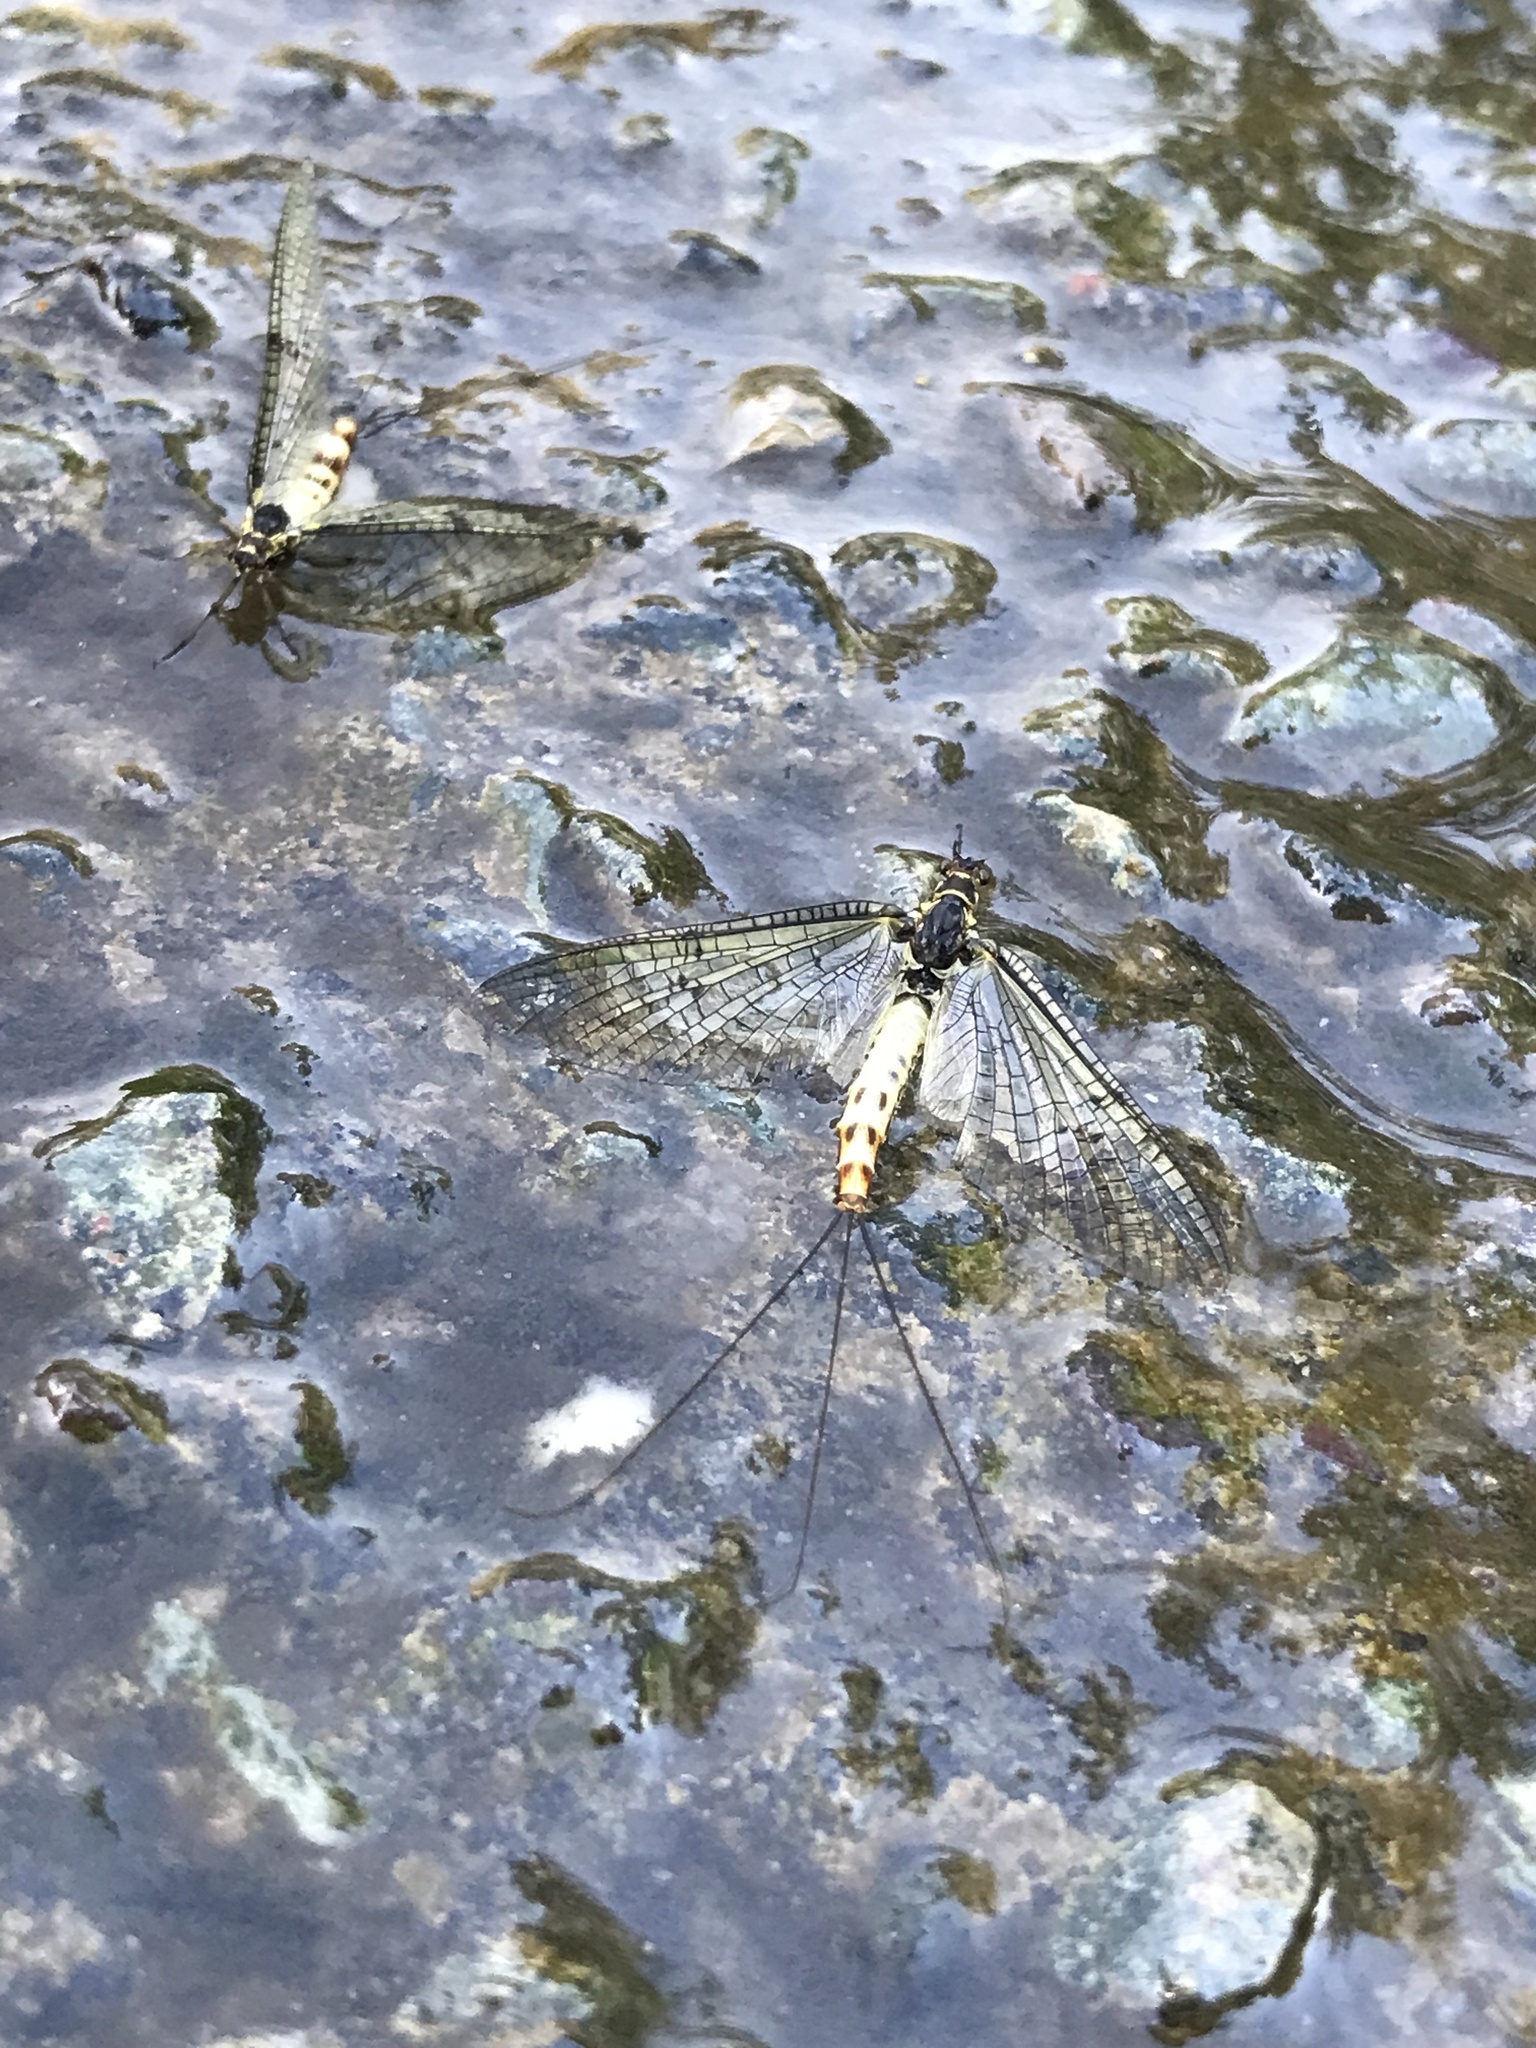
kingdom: Animalia
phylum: Arthropoda
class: Insecta
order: Ephemeroptera
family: Ephemeridae
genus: Ephemera
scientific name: Ephemera danica
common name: Green dun
